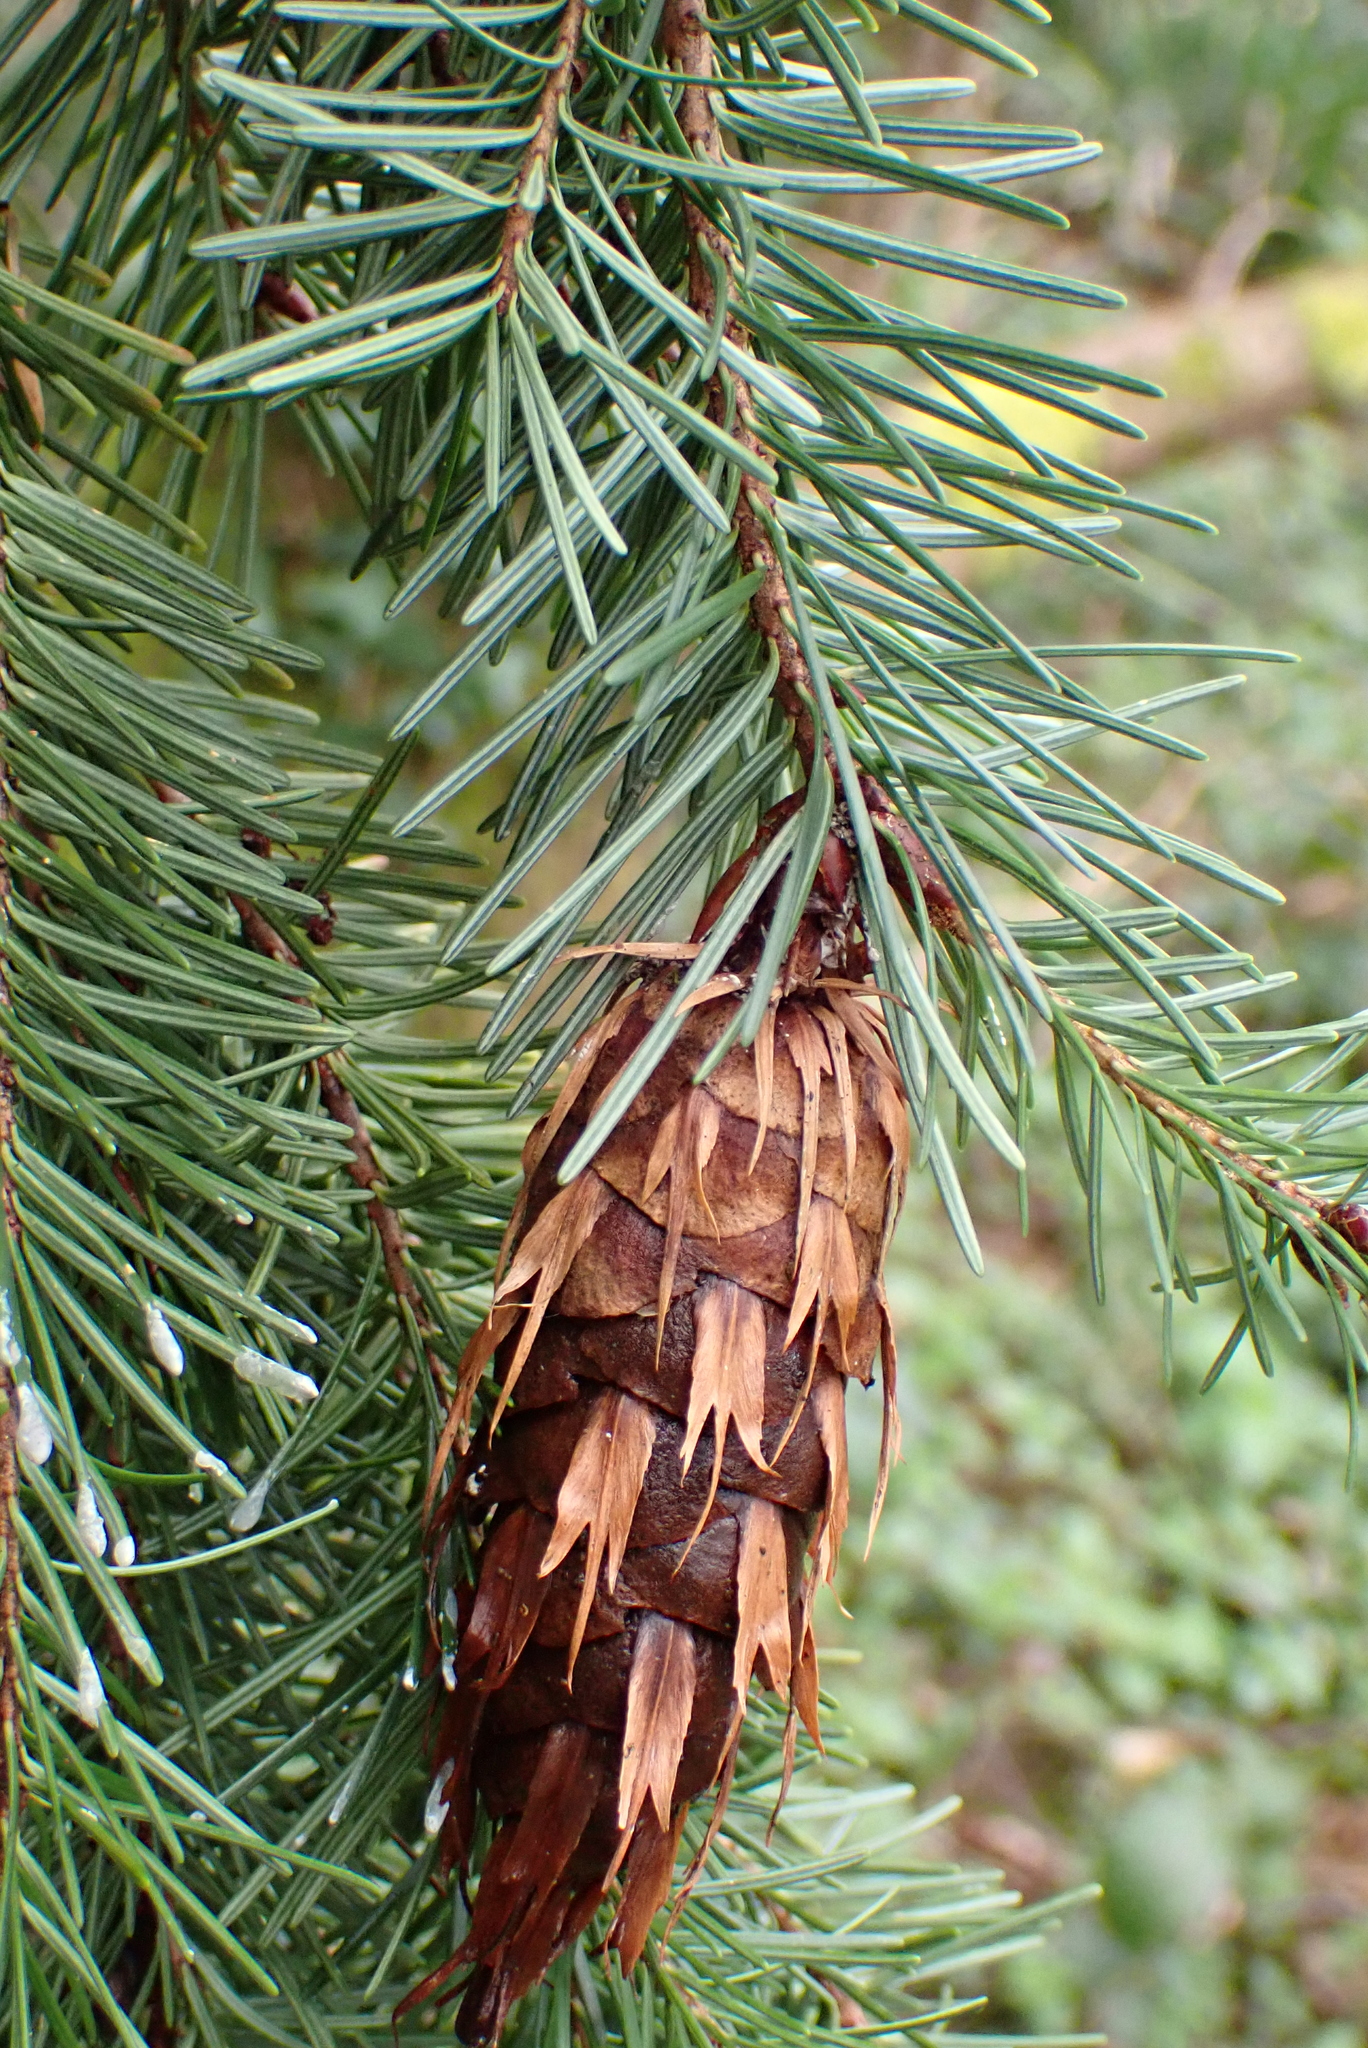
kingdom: Plantae
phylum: Tracheophyta
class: Pinopsida
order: Pinales
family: Pinaceae
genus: Pseudotsuga
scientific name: Pseudotsuga menziesii
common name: Douglas fir
